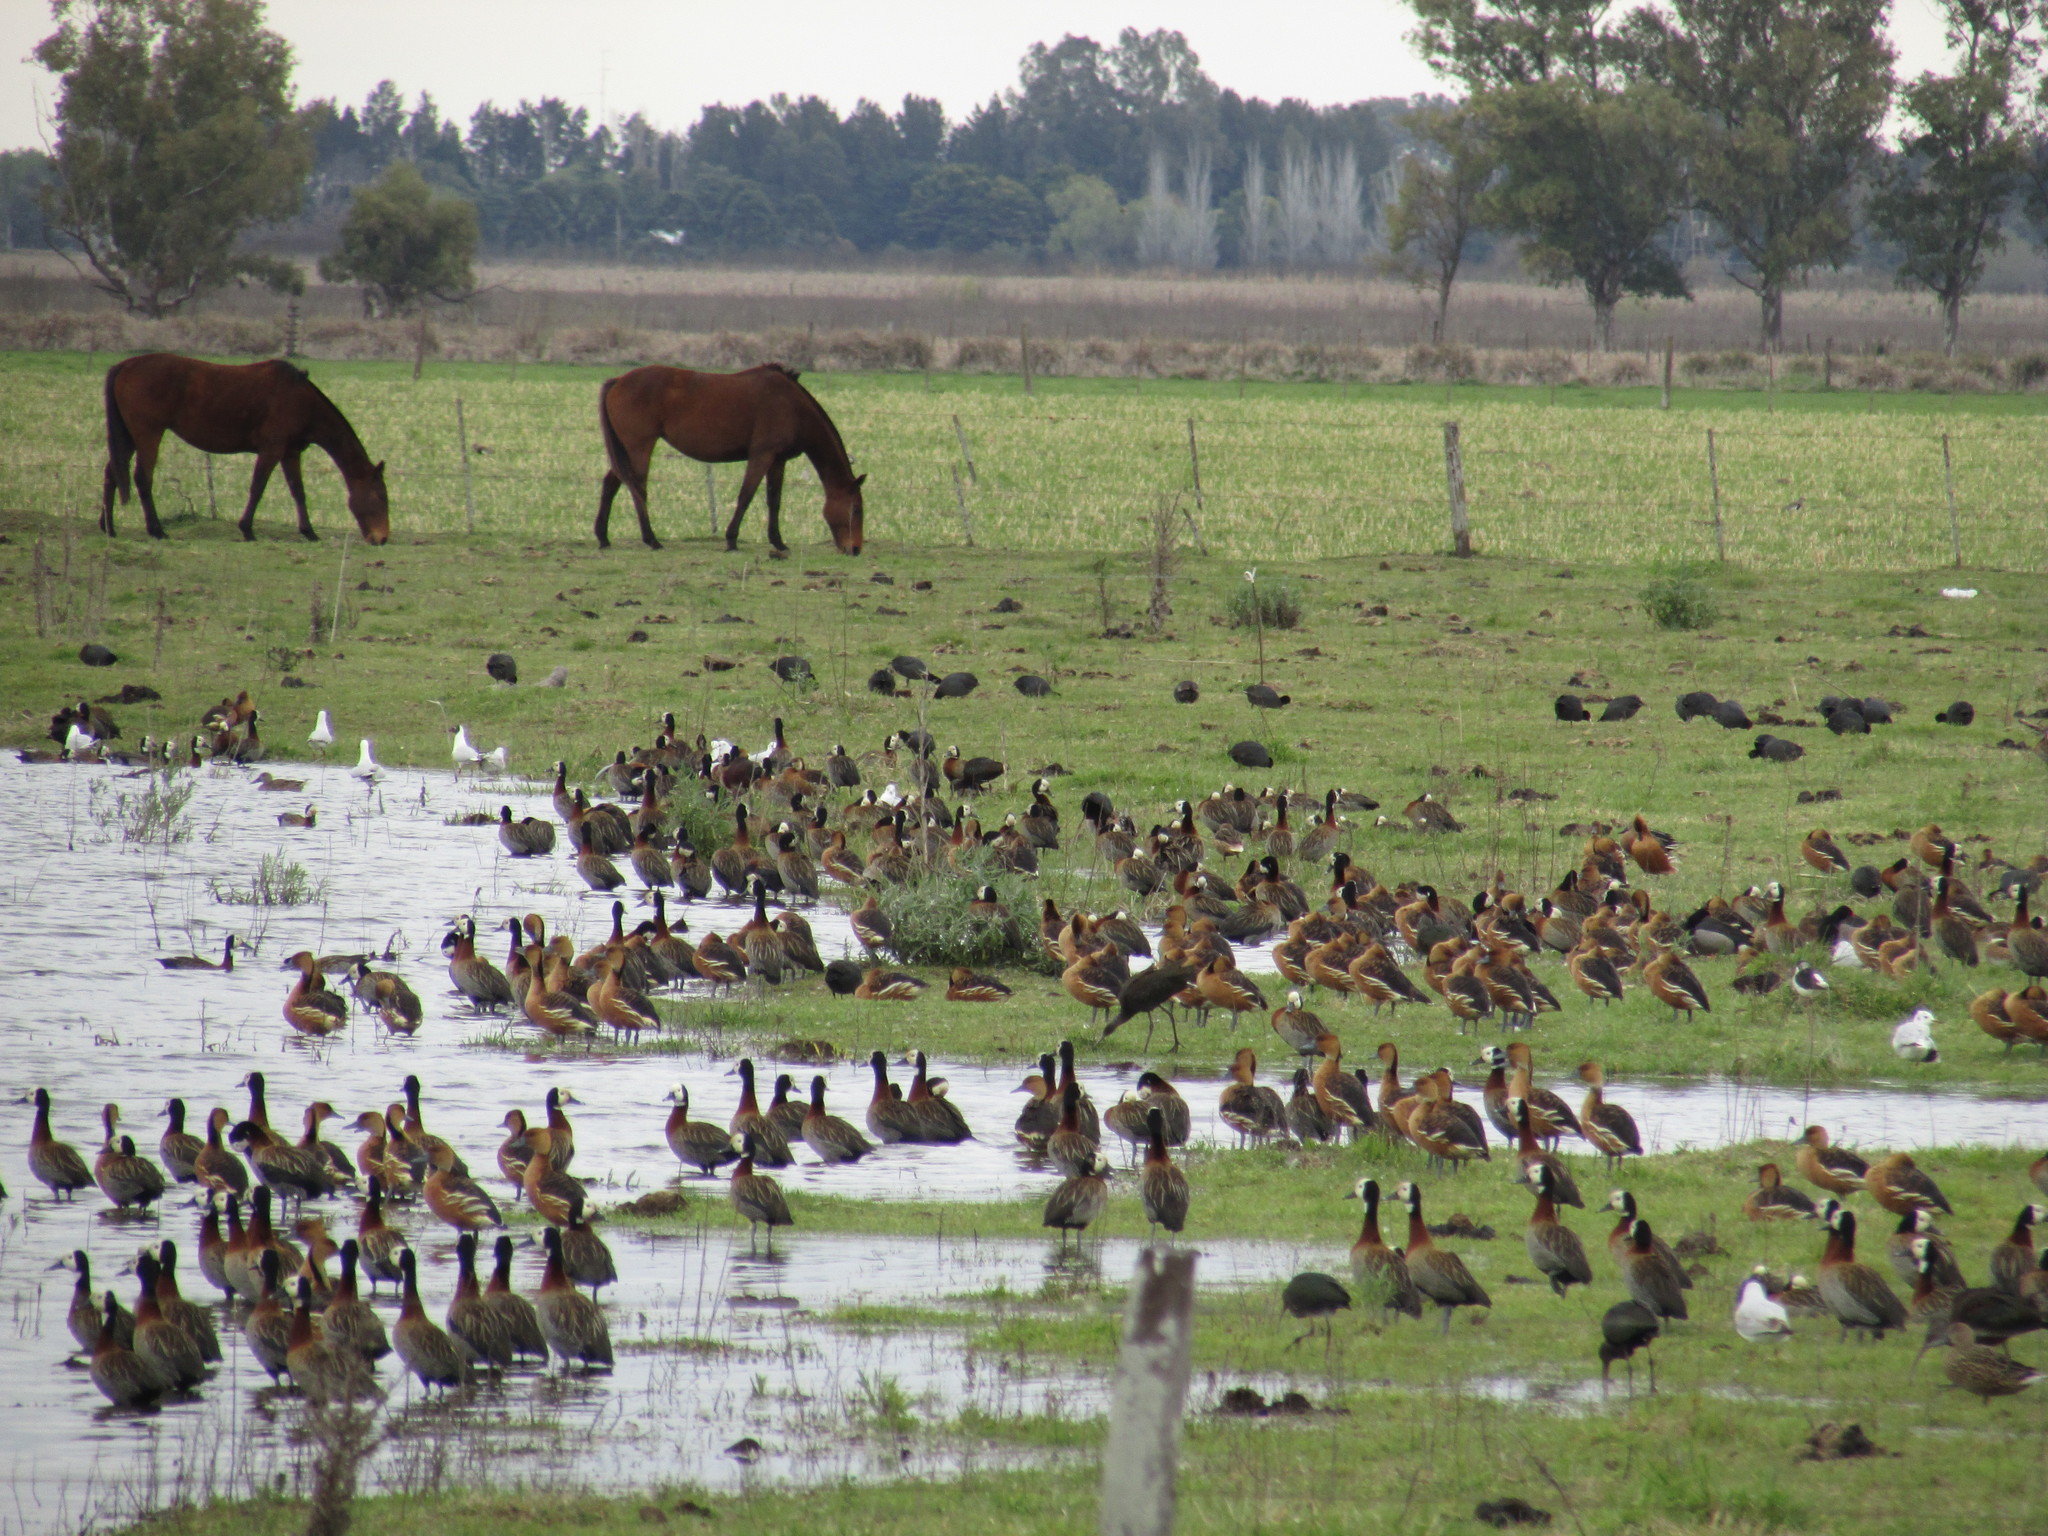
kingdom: Animalia
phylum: Chordata
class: Aves
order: Anseriformes
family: Anatidae
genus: Dendrocygna
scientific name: Dendrocygna viduata
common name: White-faced whistling duck
